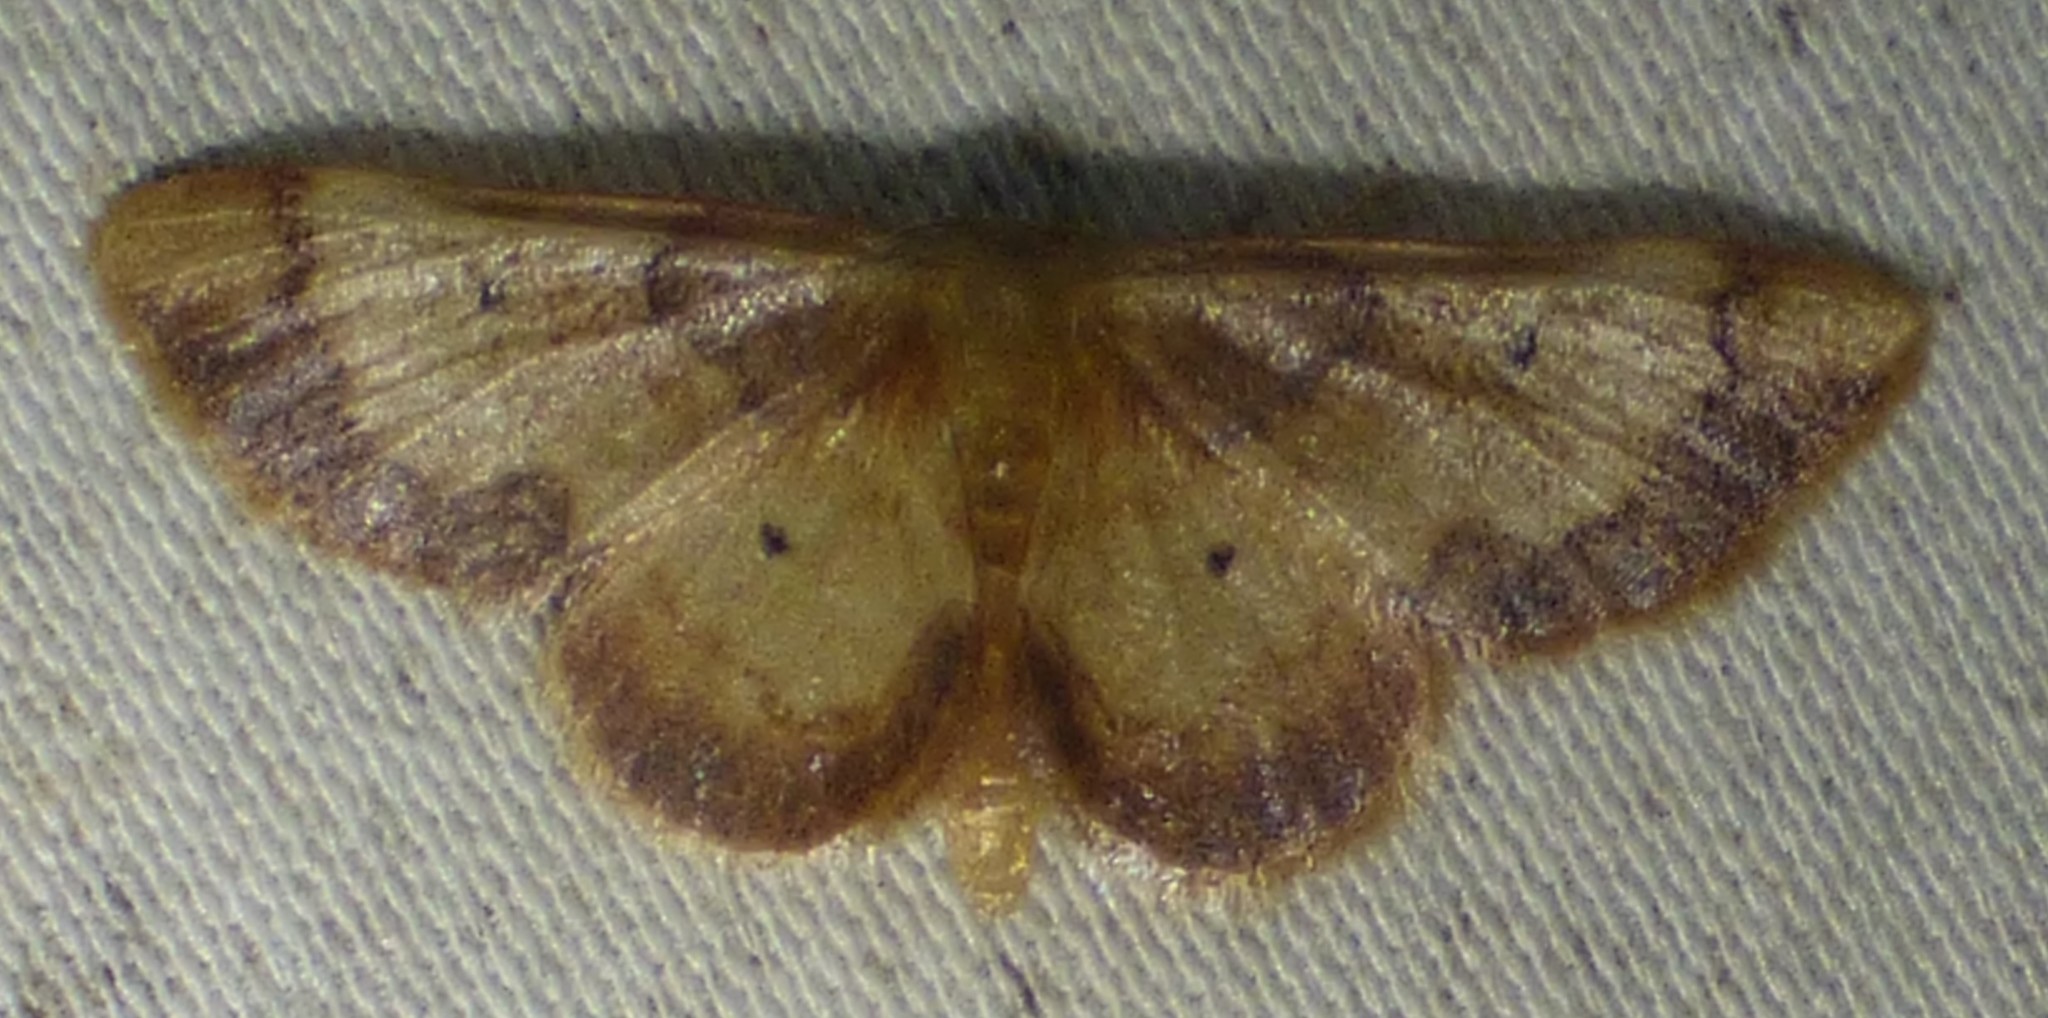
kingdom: Animalia
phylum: Arthropoda
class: Insecta
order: Lepidoptera
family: Geometridae
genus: Idaea
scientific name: Idaea demissaria
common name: Red-bordered wave
